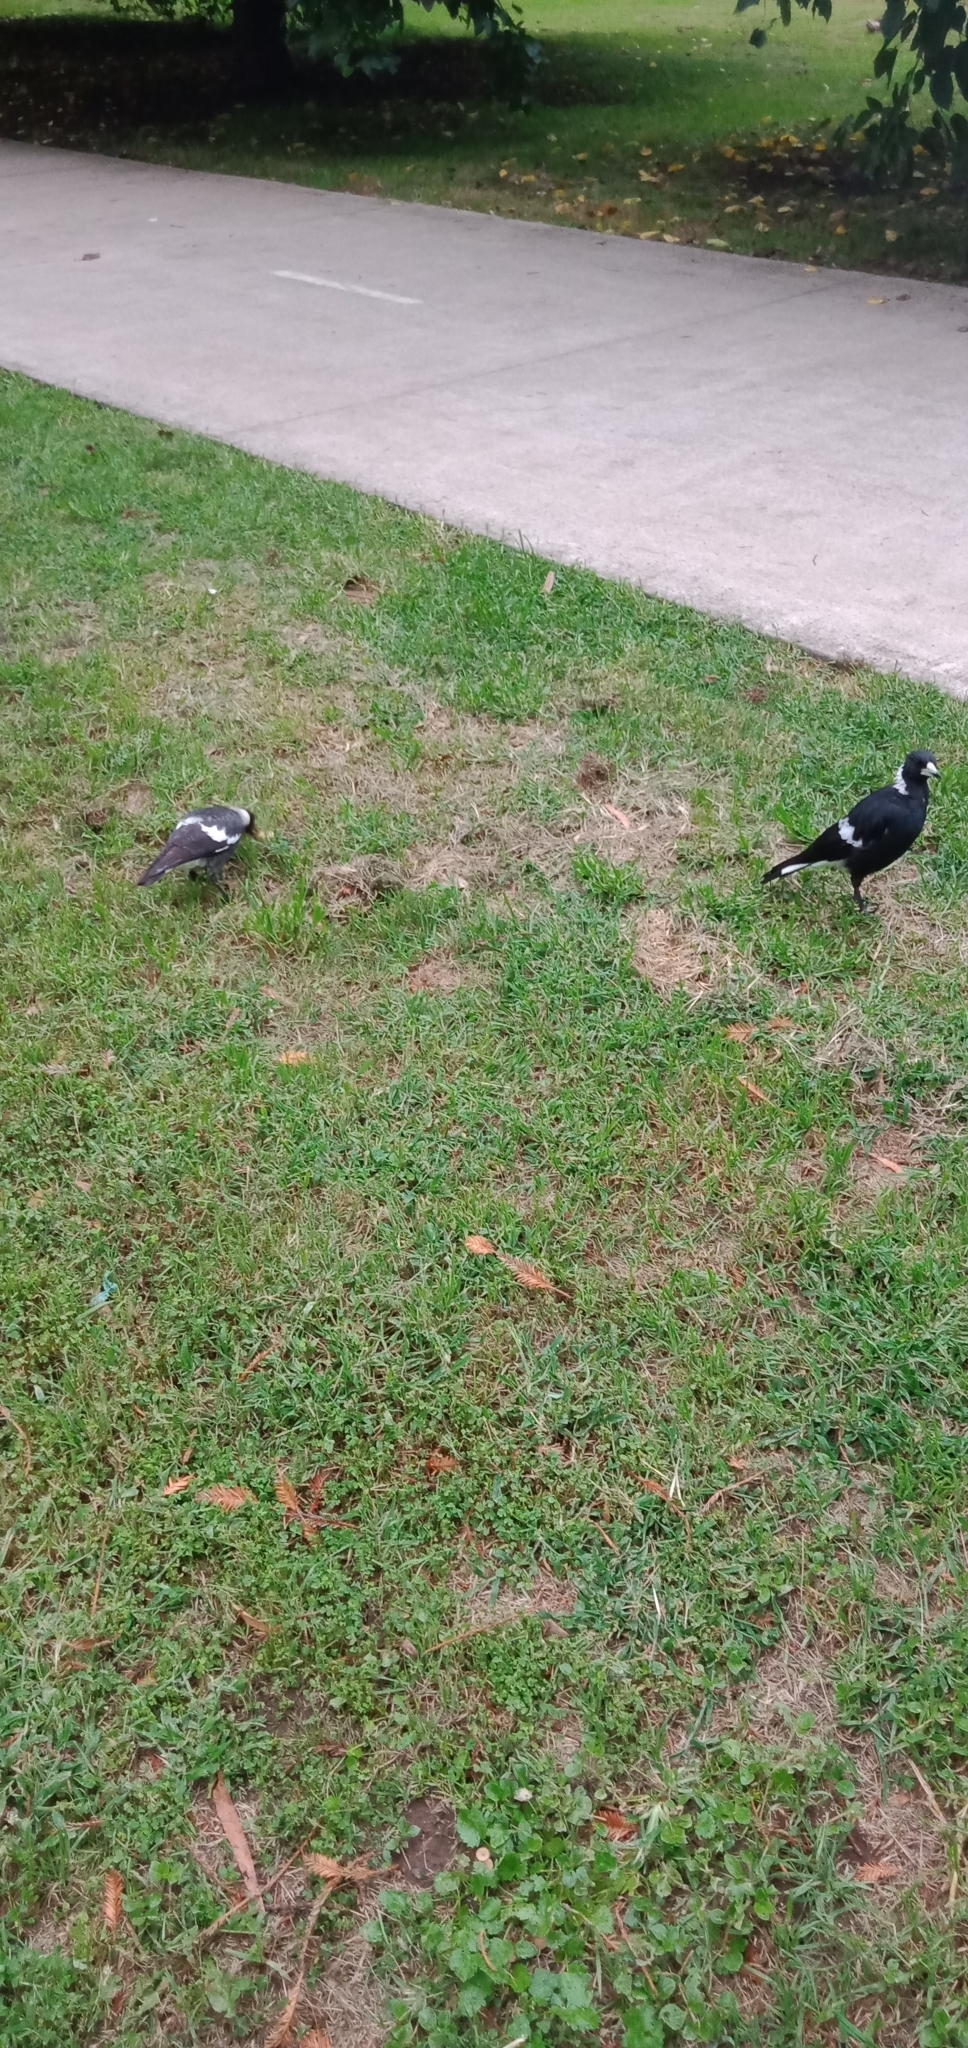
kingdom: Animalia
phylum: Chordata
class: Aves
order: Passeriformes
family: Cracticidae
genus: Gymnorhina
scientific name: Gymnorhina tibicen
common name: Australian magpie
